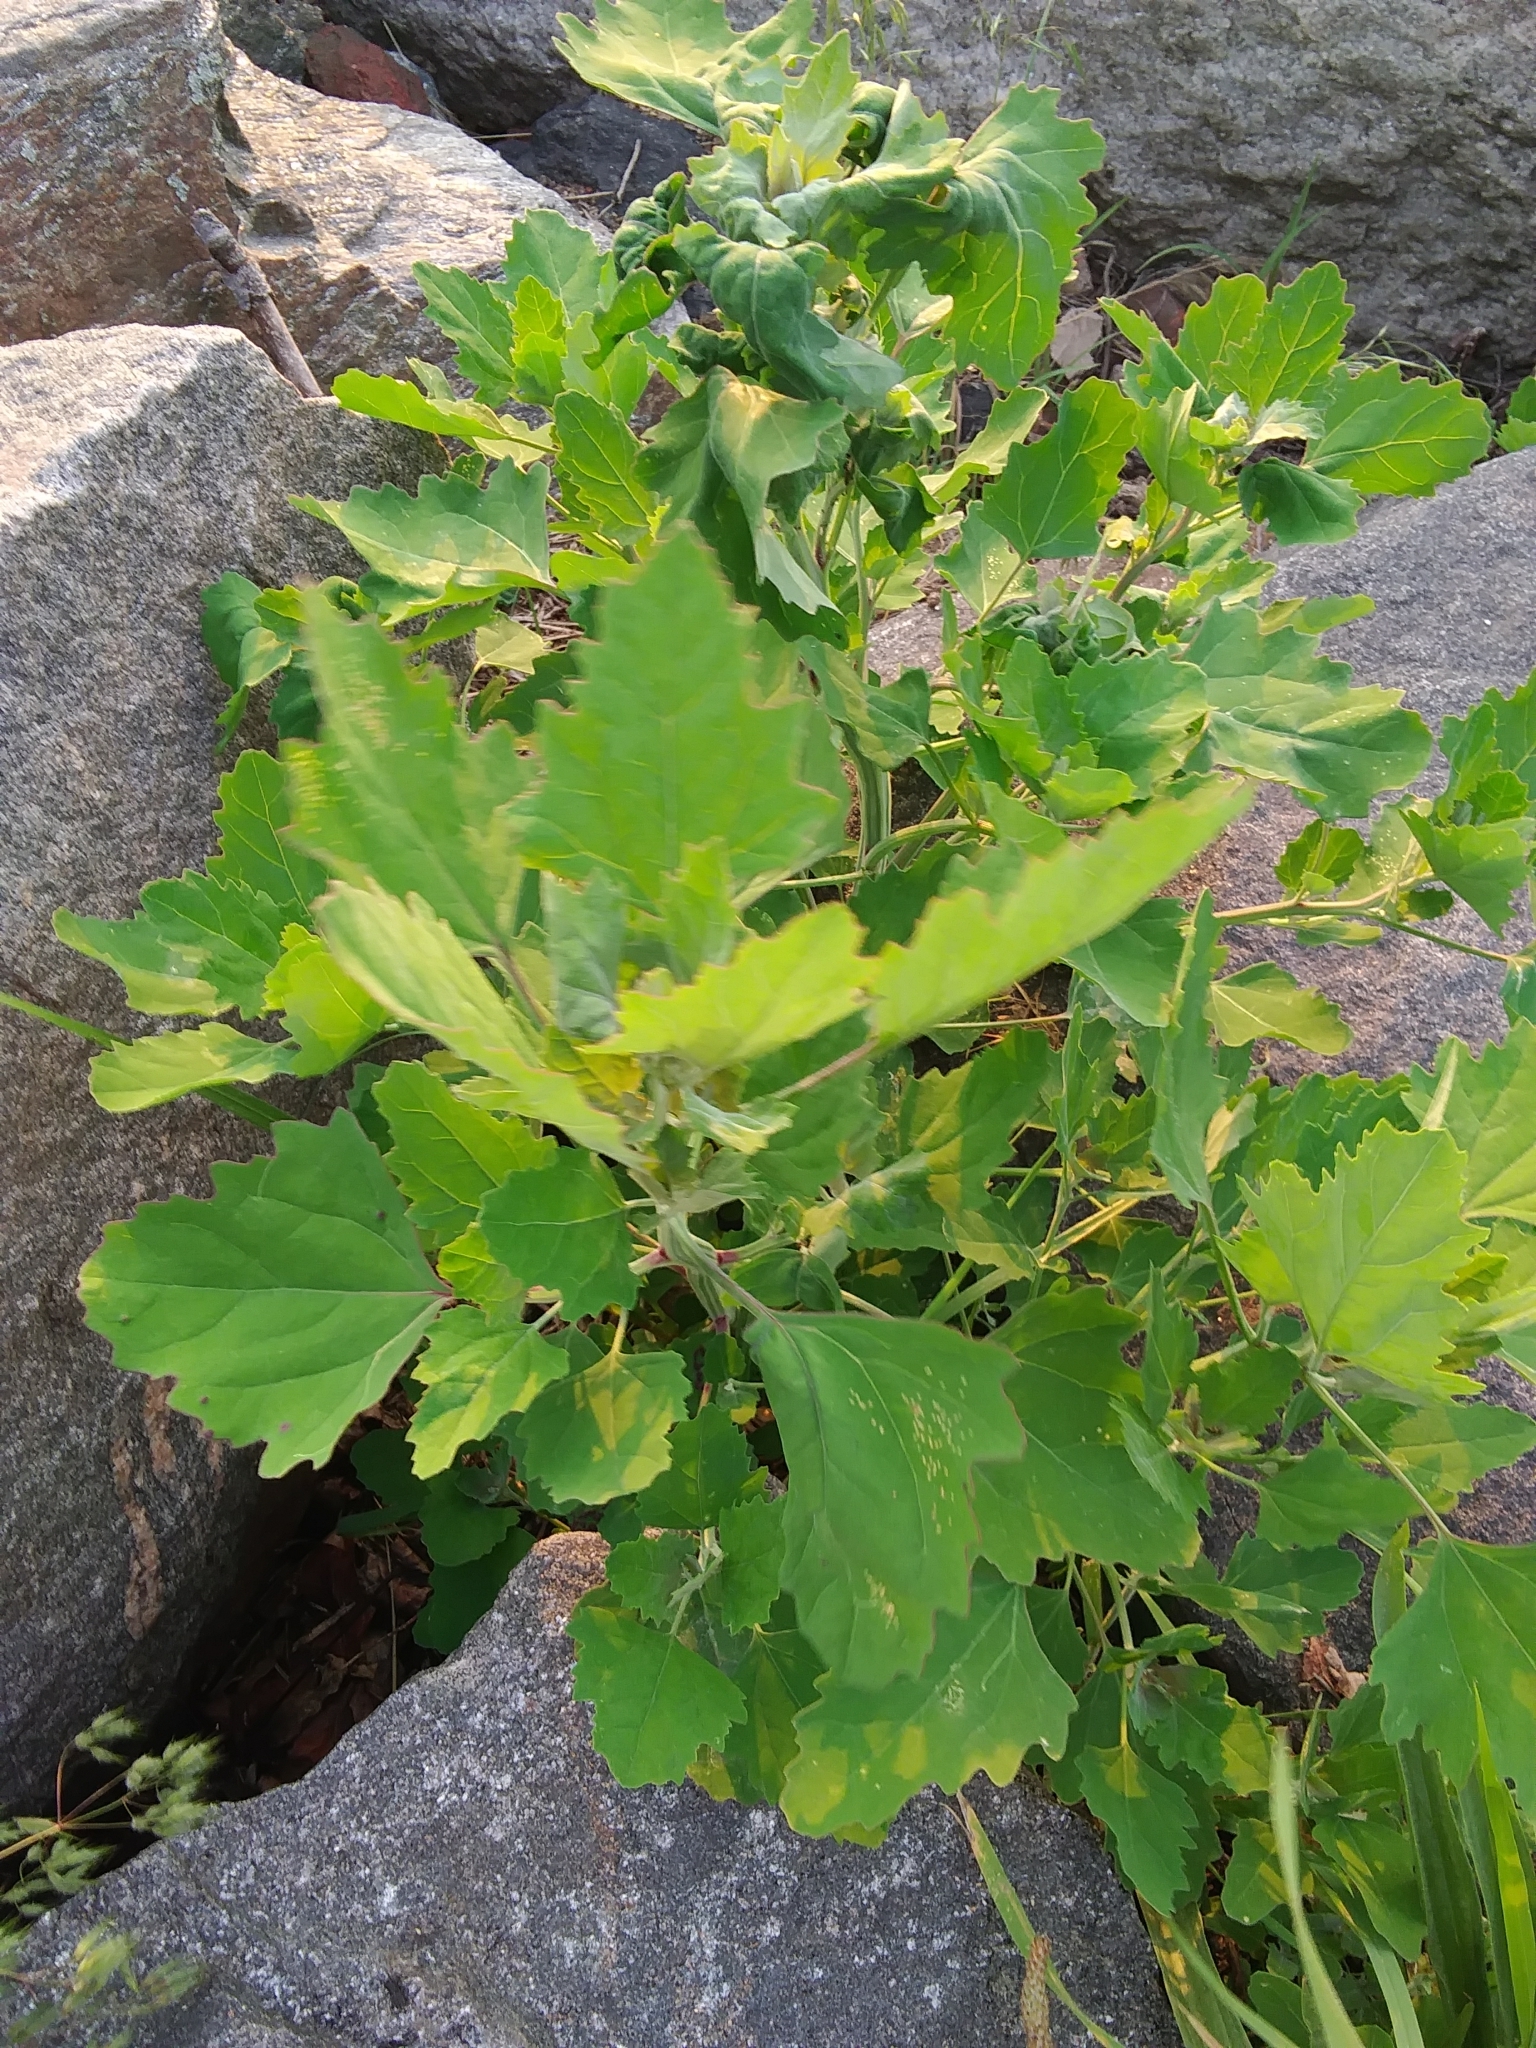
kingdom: Plantae
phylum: Tracheophyta
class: Magnoliopsida
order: Caryophyllales
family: Amaranthaceae
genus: Chenopodium
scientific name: Chenopodium album
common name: Fat-hen
